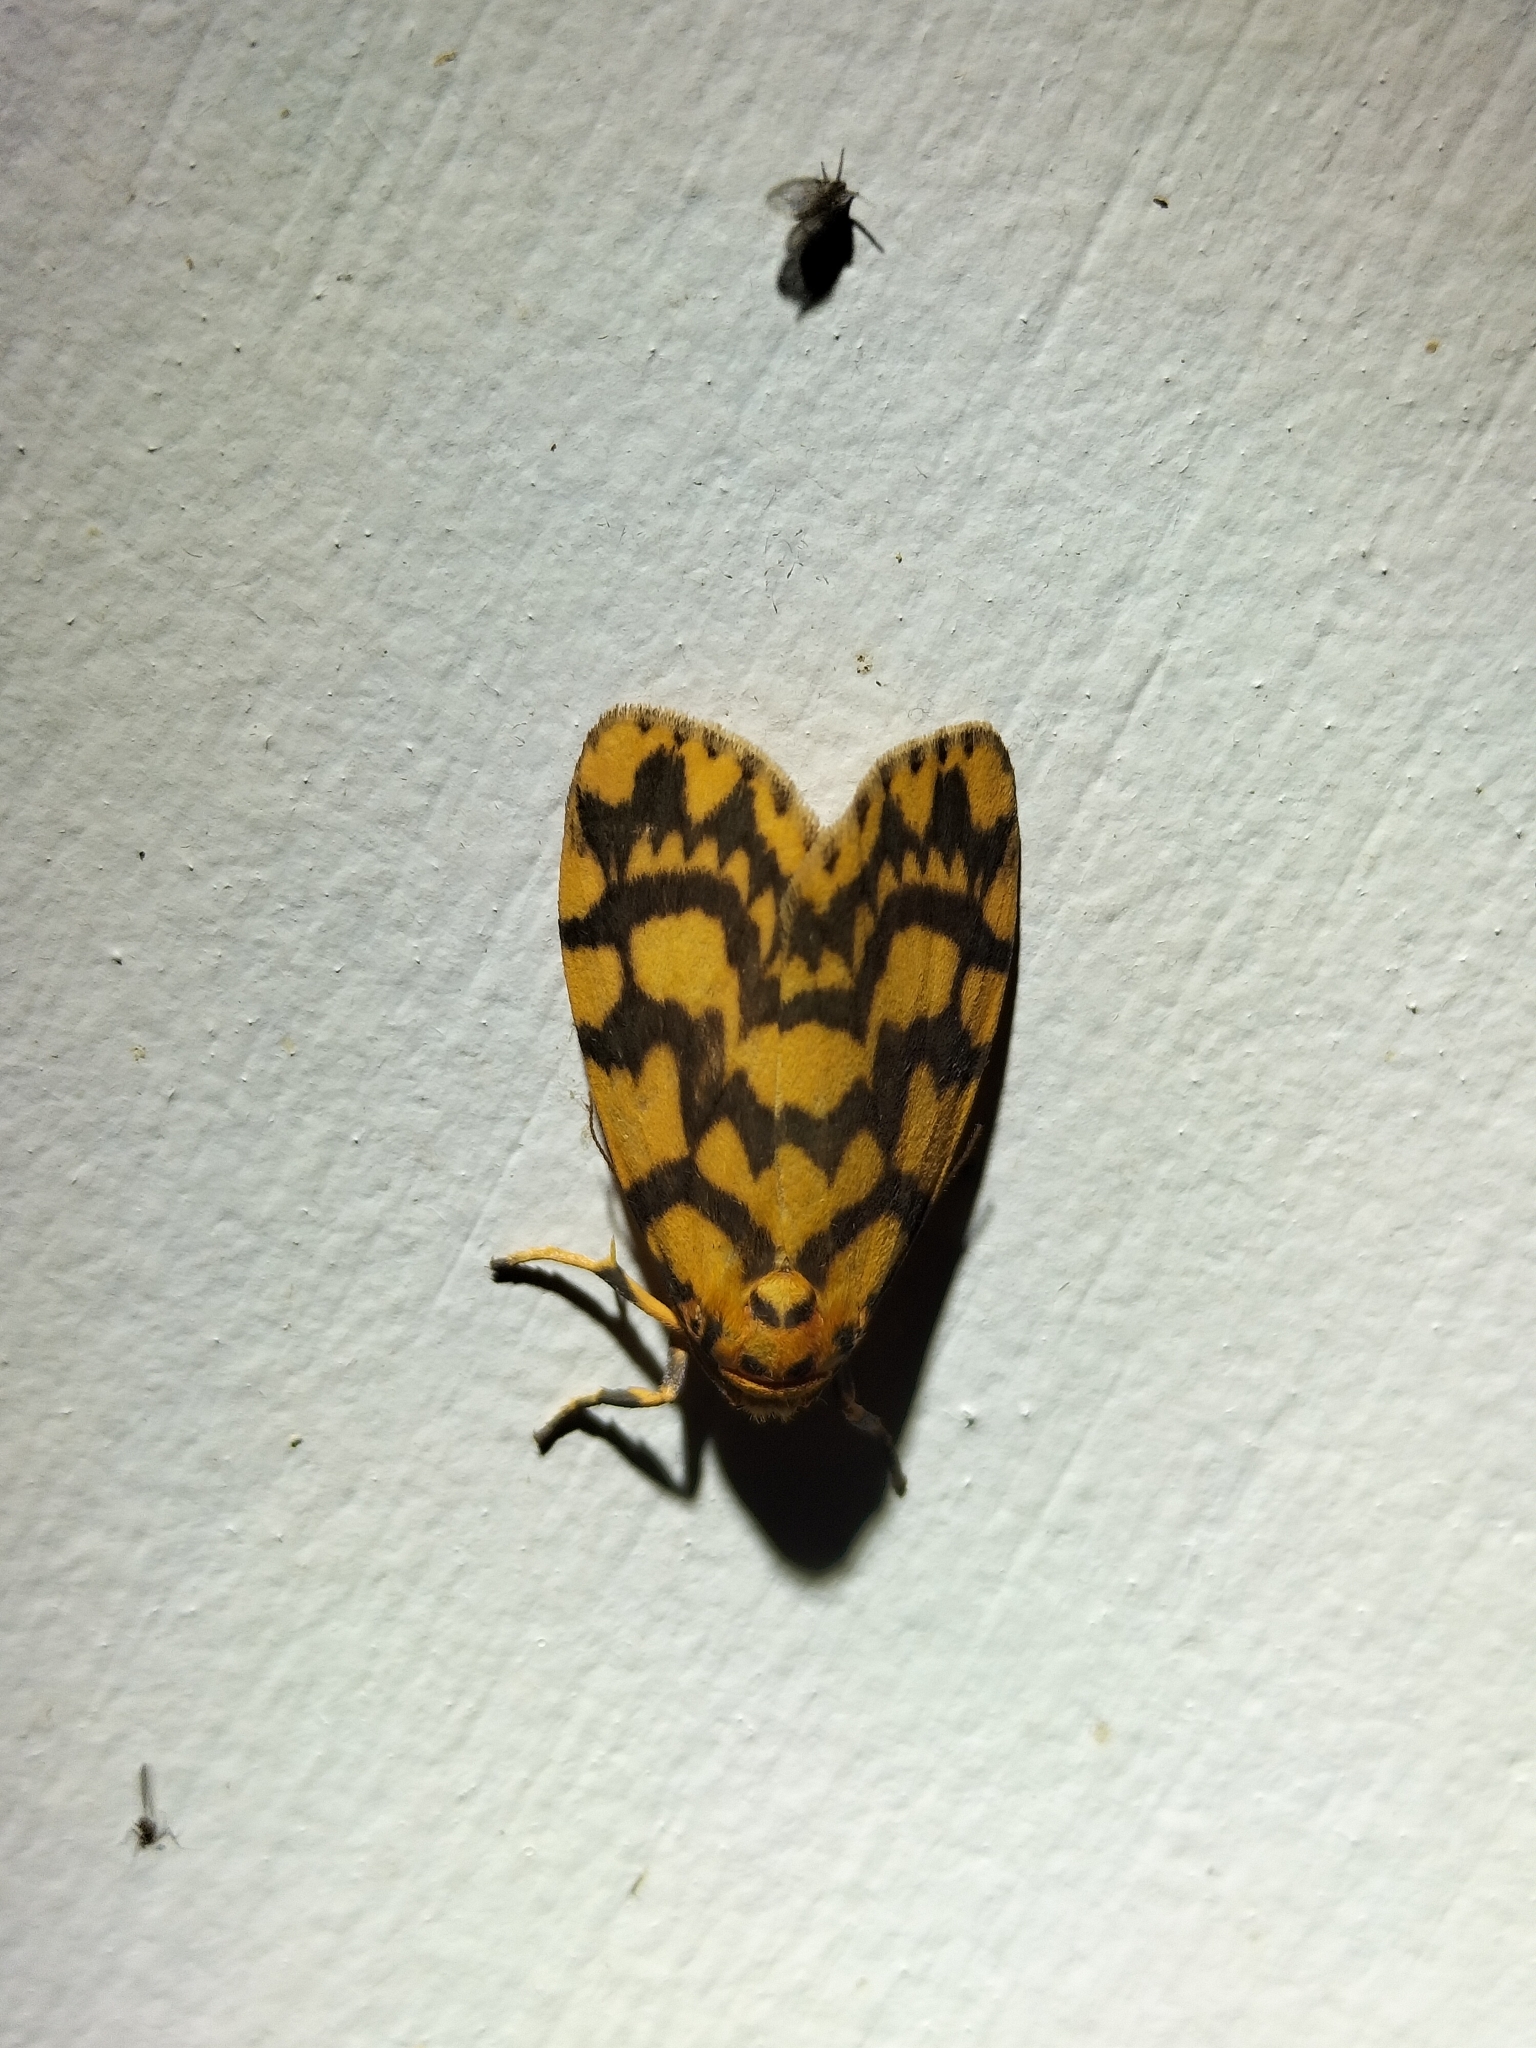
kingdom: Animalia
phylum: Arthropoda
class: Insecta
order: Lepidoptera
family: Erebidae
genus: Cyme
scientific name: Cyme quadrilineata
